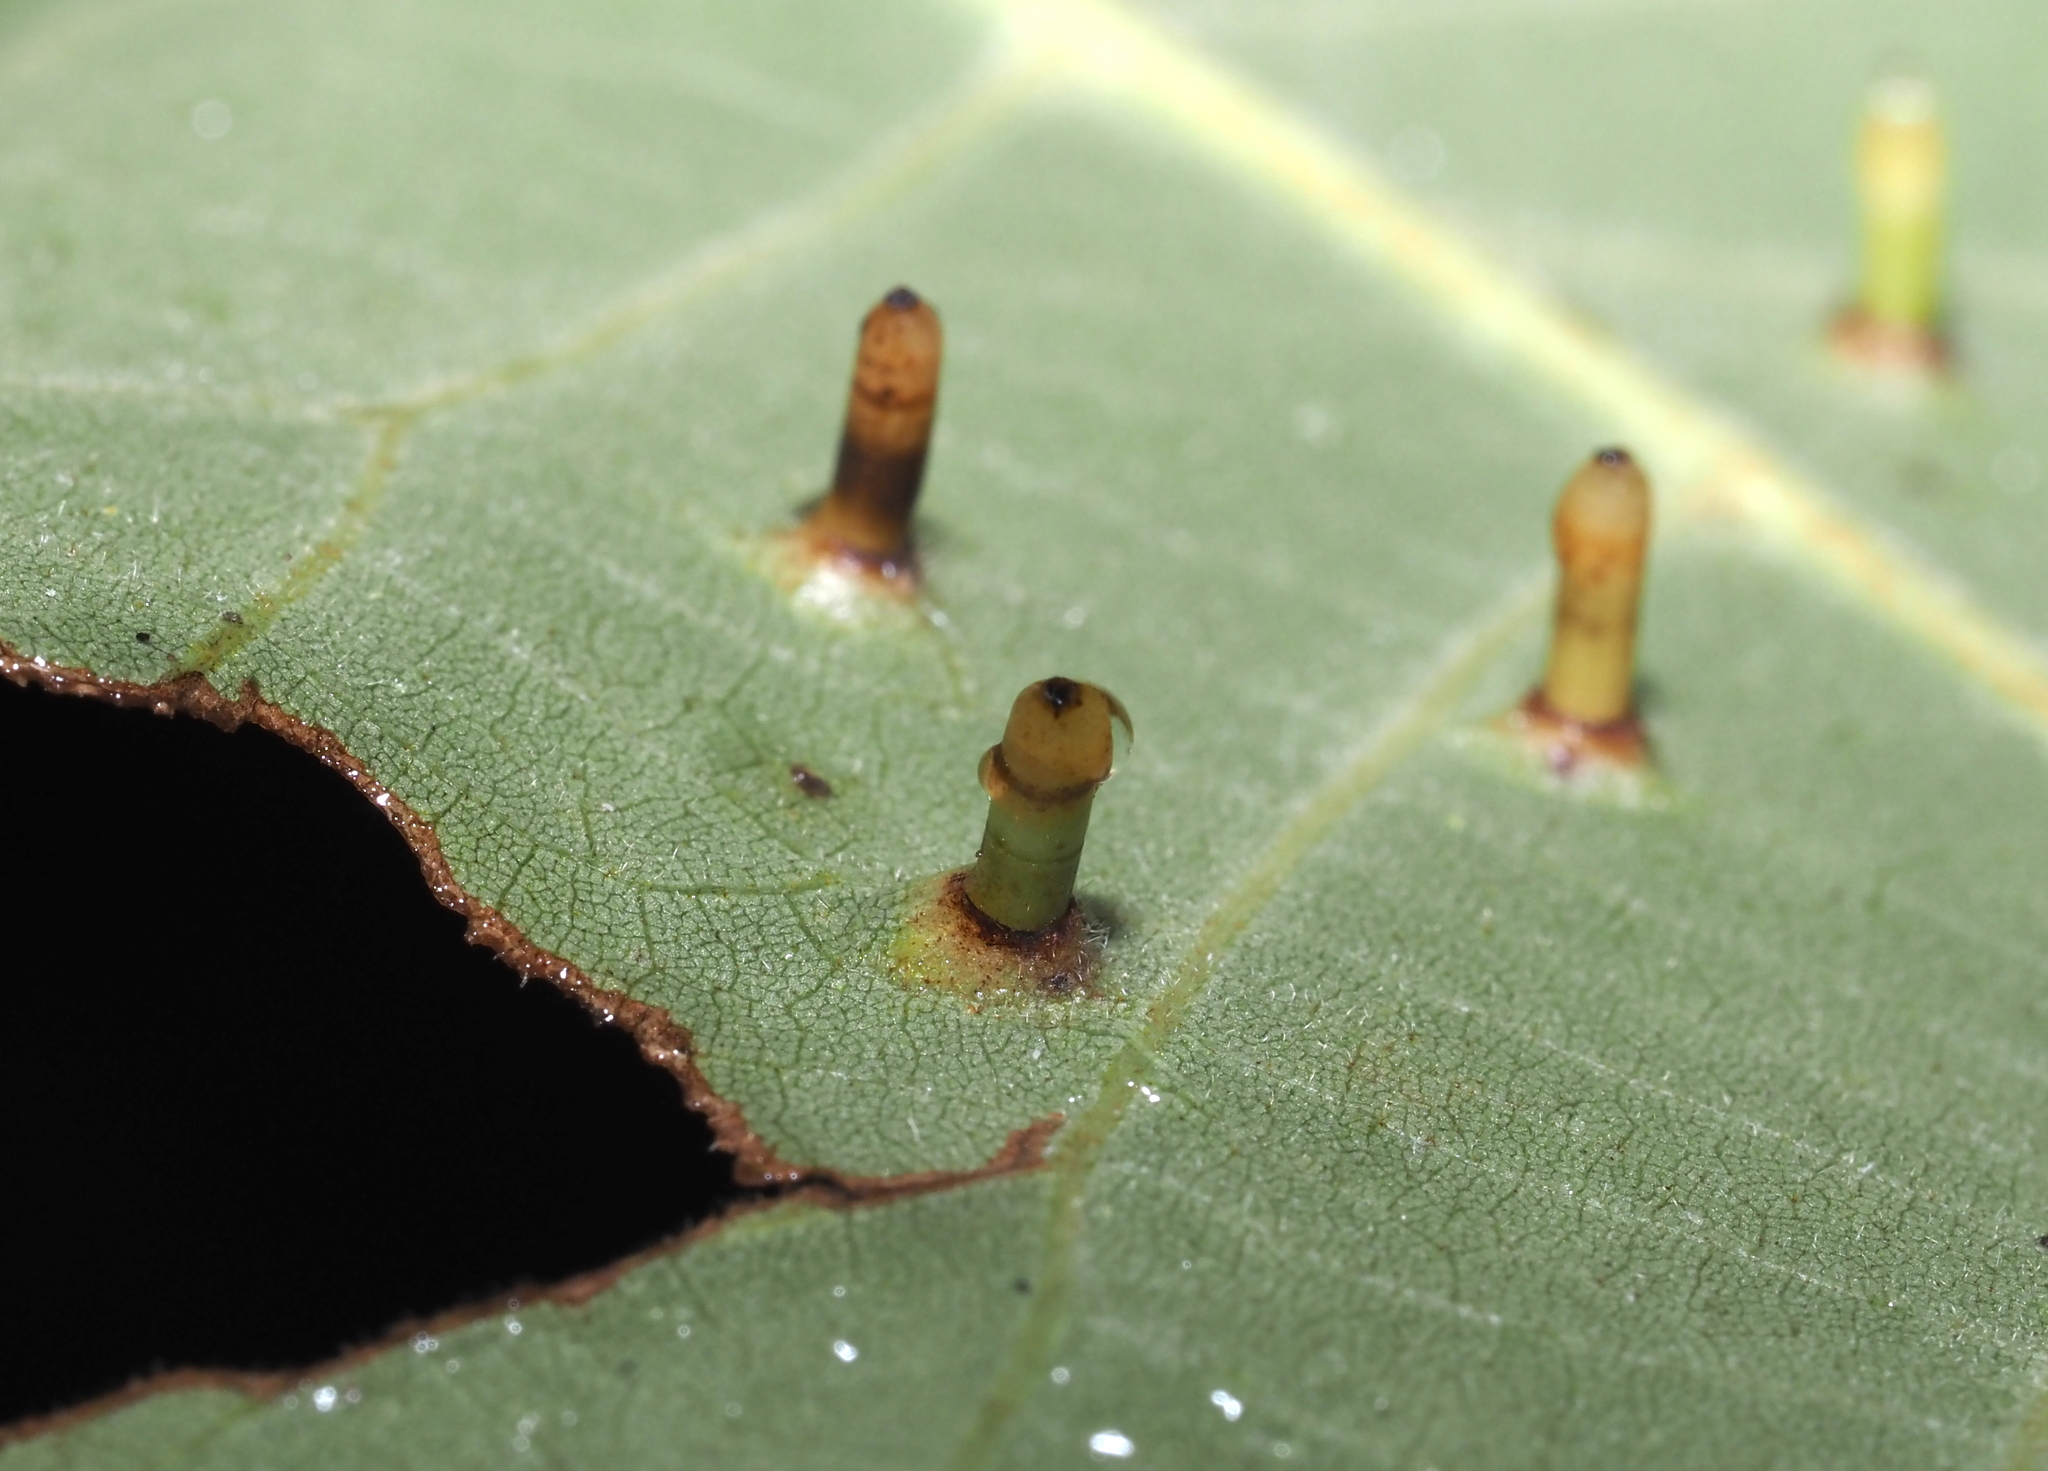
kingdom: Animalia
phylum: Arthropoda
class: Insecta
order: Diptera
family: Cecidomyiidae
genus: Caryomyia
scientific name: Caryomyia tubicola
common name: Hickory bullet gall midge
